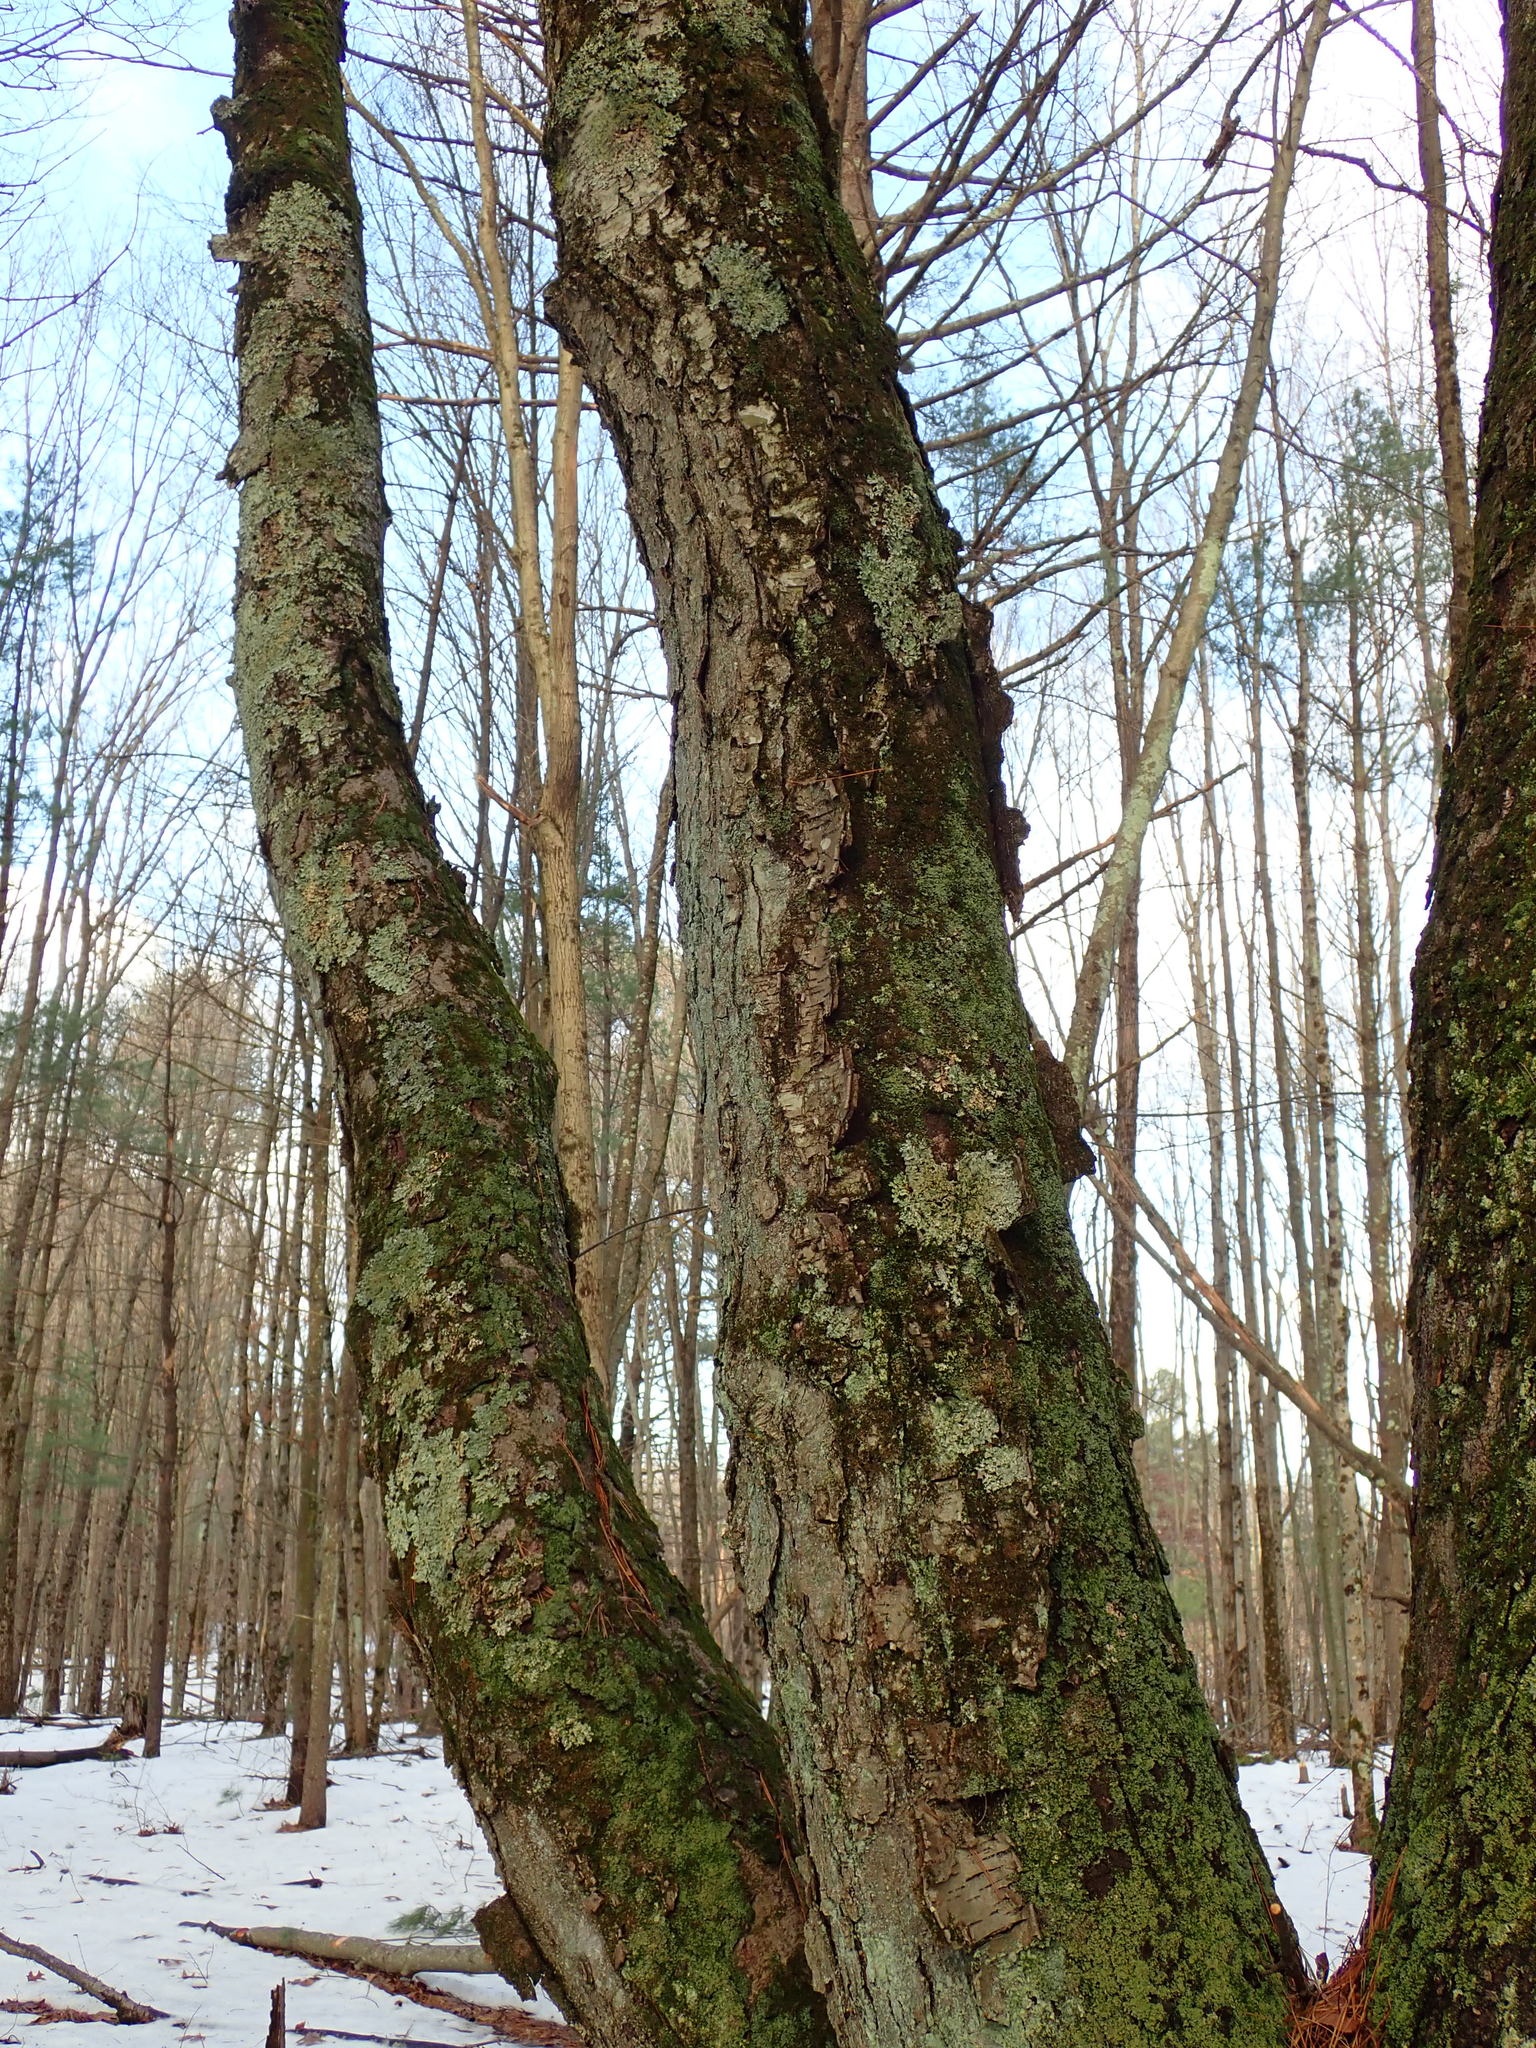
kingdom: Plantae
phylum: Tracheophyta
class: Magnoliopsida
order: Fagales
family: Betulaceae
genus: Betula
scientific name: Betula lenta
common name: Black birch
